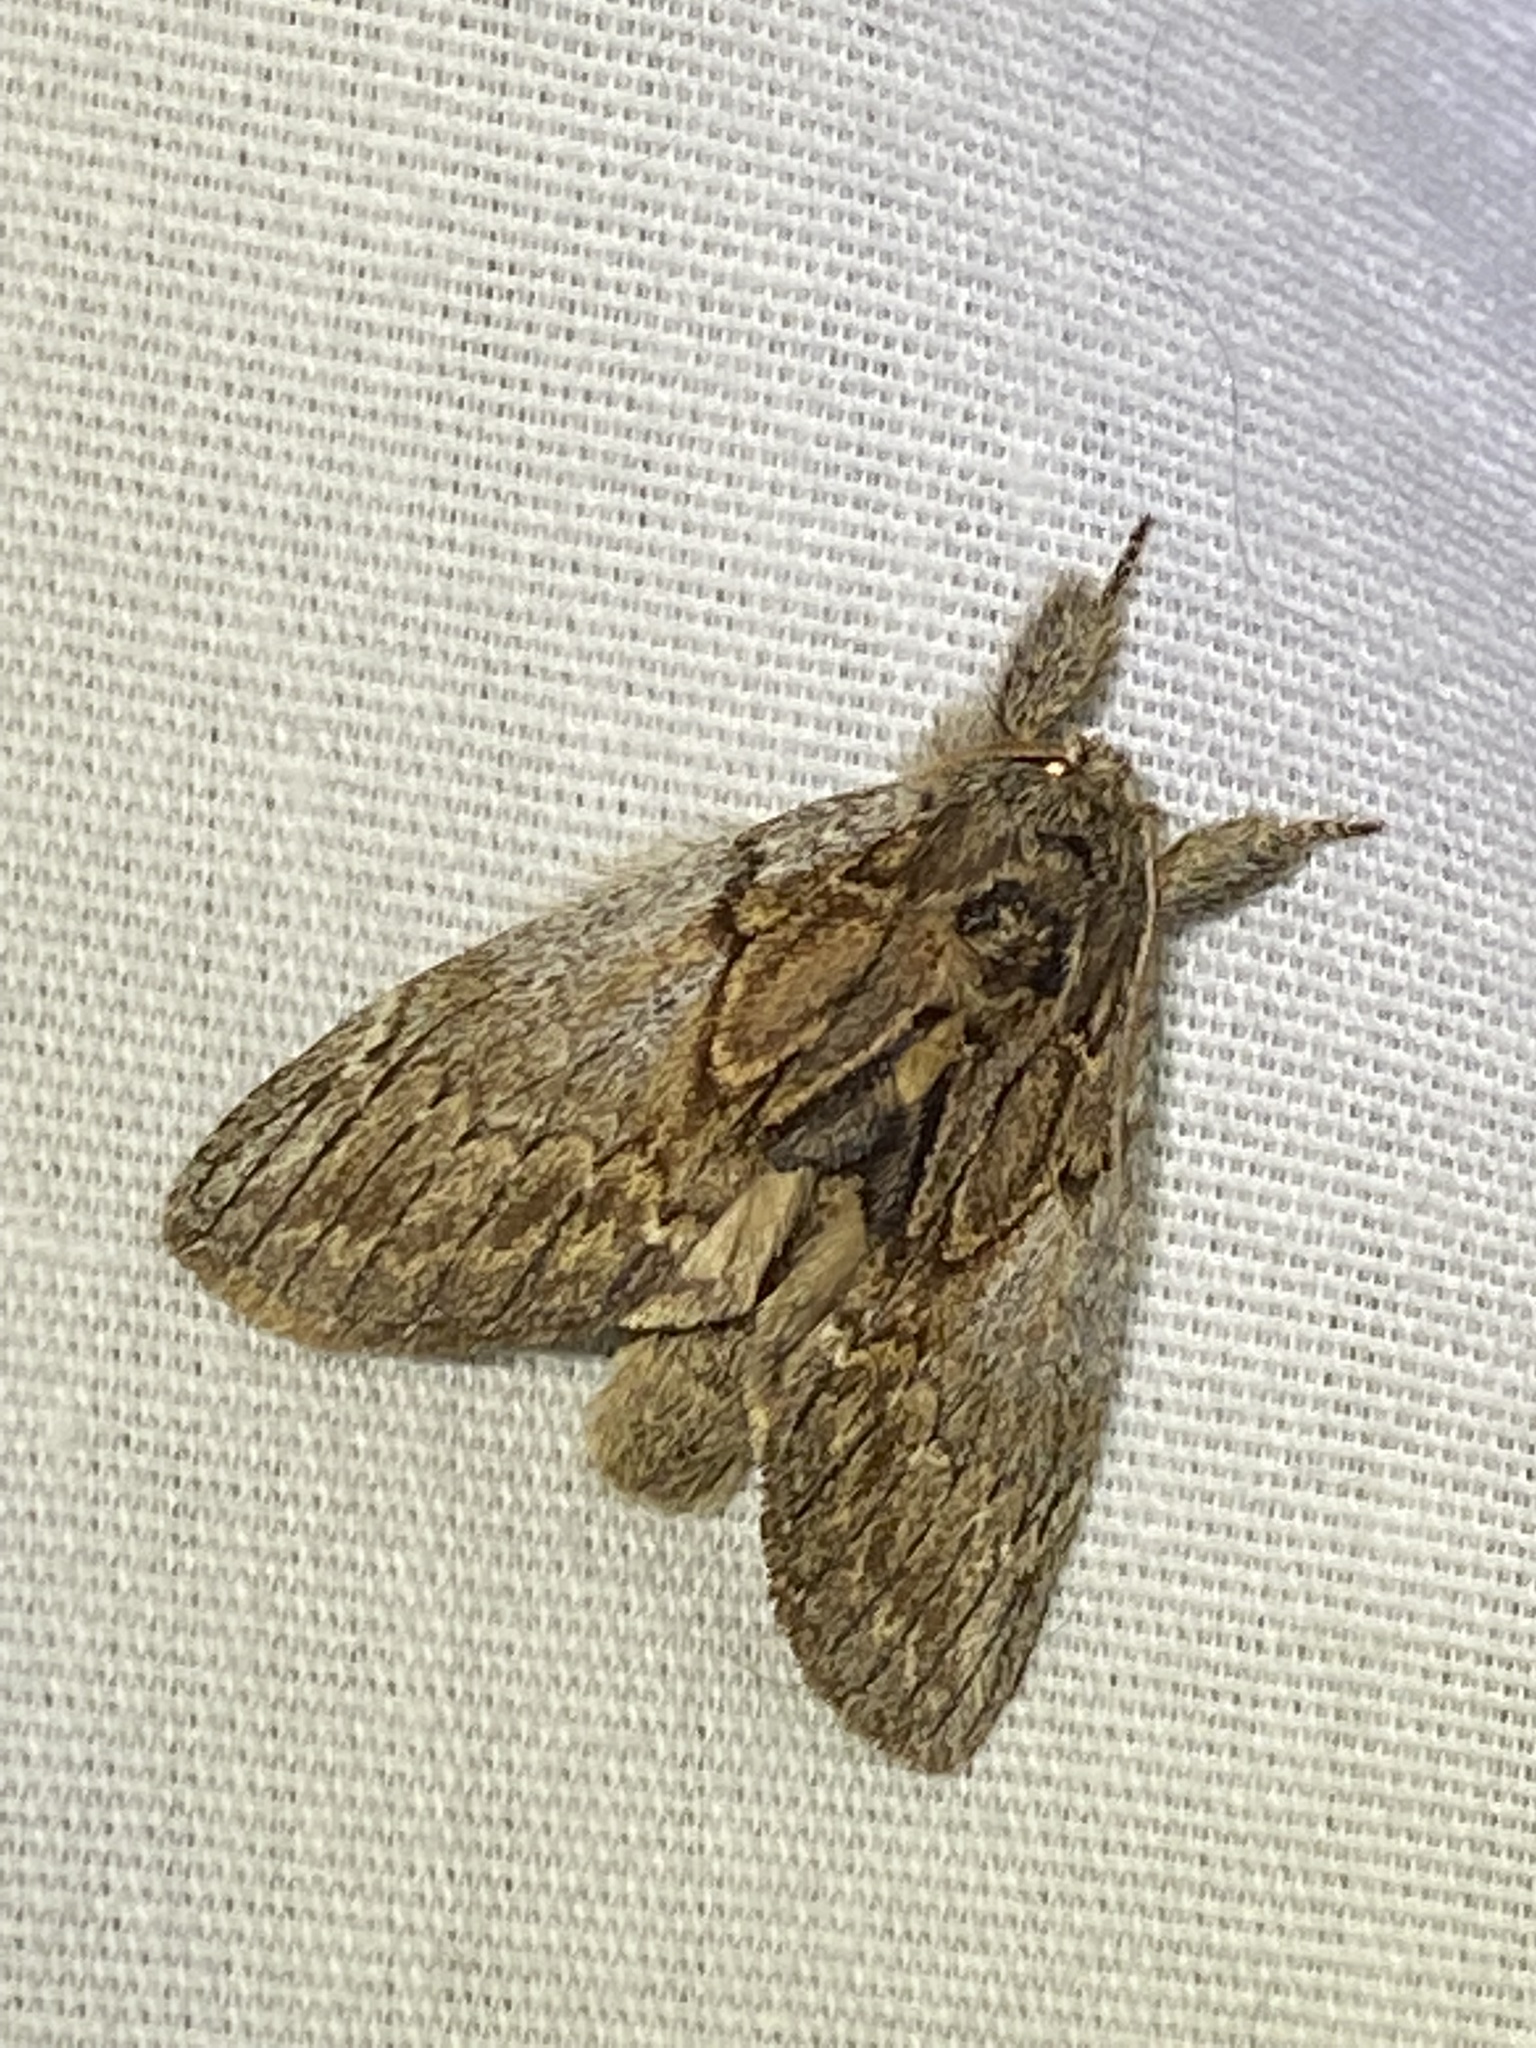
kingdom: Animalia
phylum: Arthropoda
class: Insecta
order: Lepidoptera
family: Notodontidae
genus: Peridea
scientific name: Peridea basitriens
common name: Oval-based prominent
